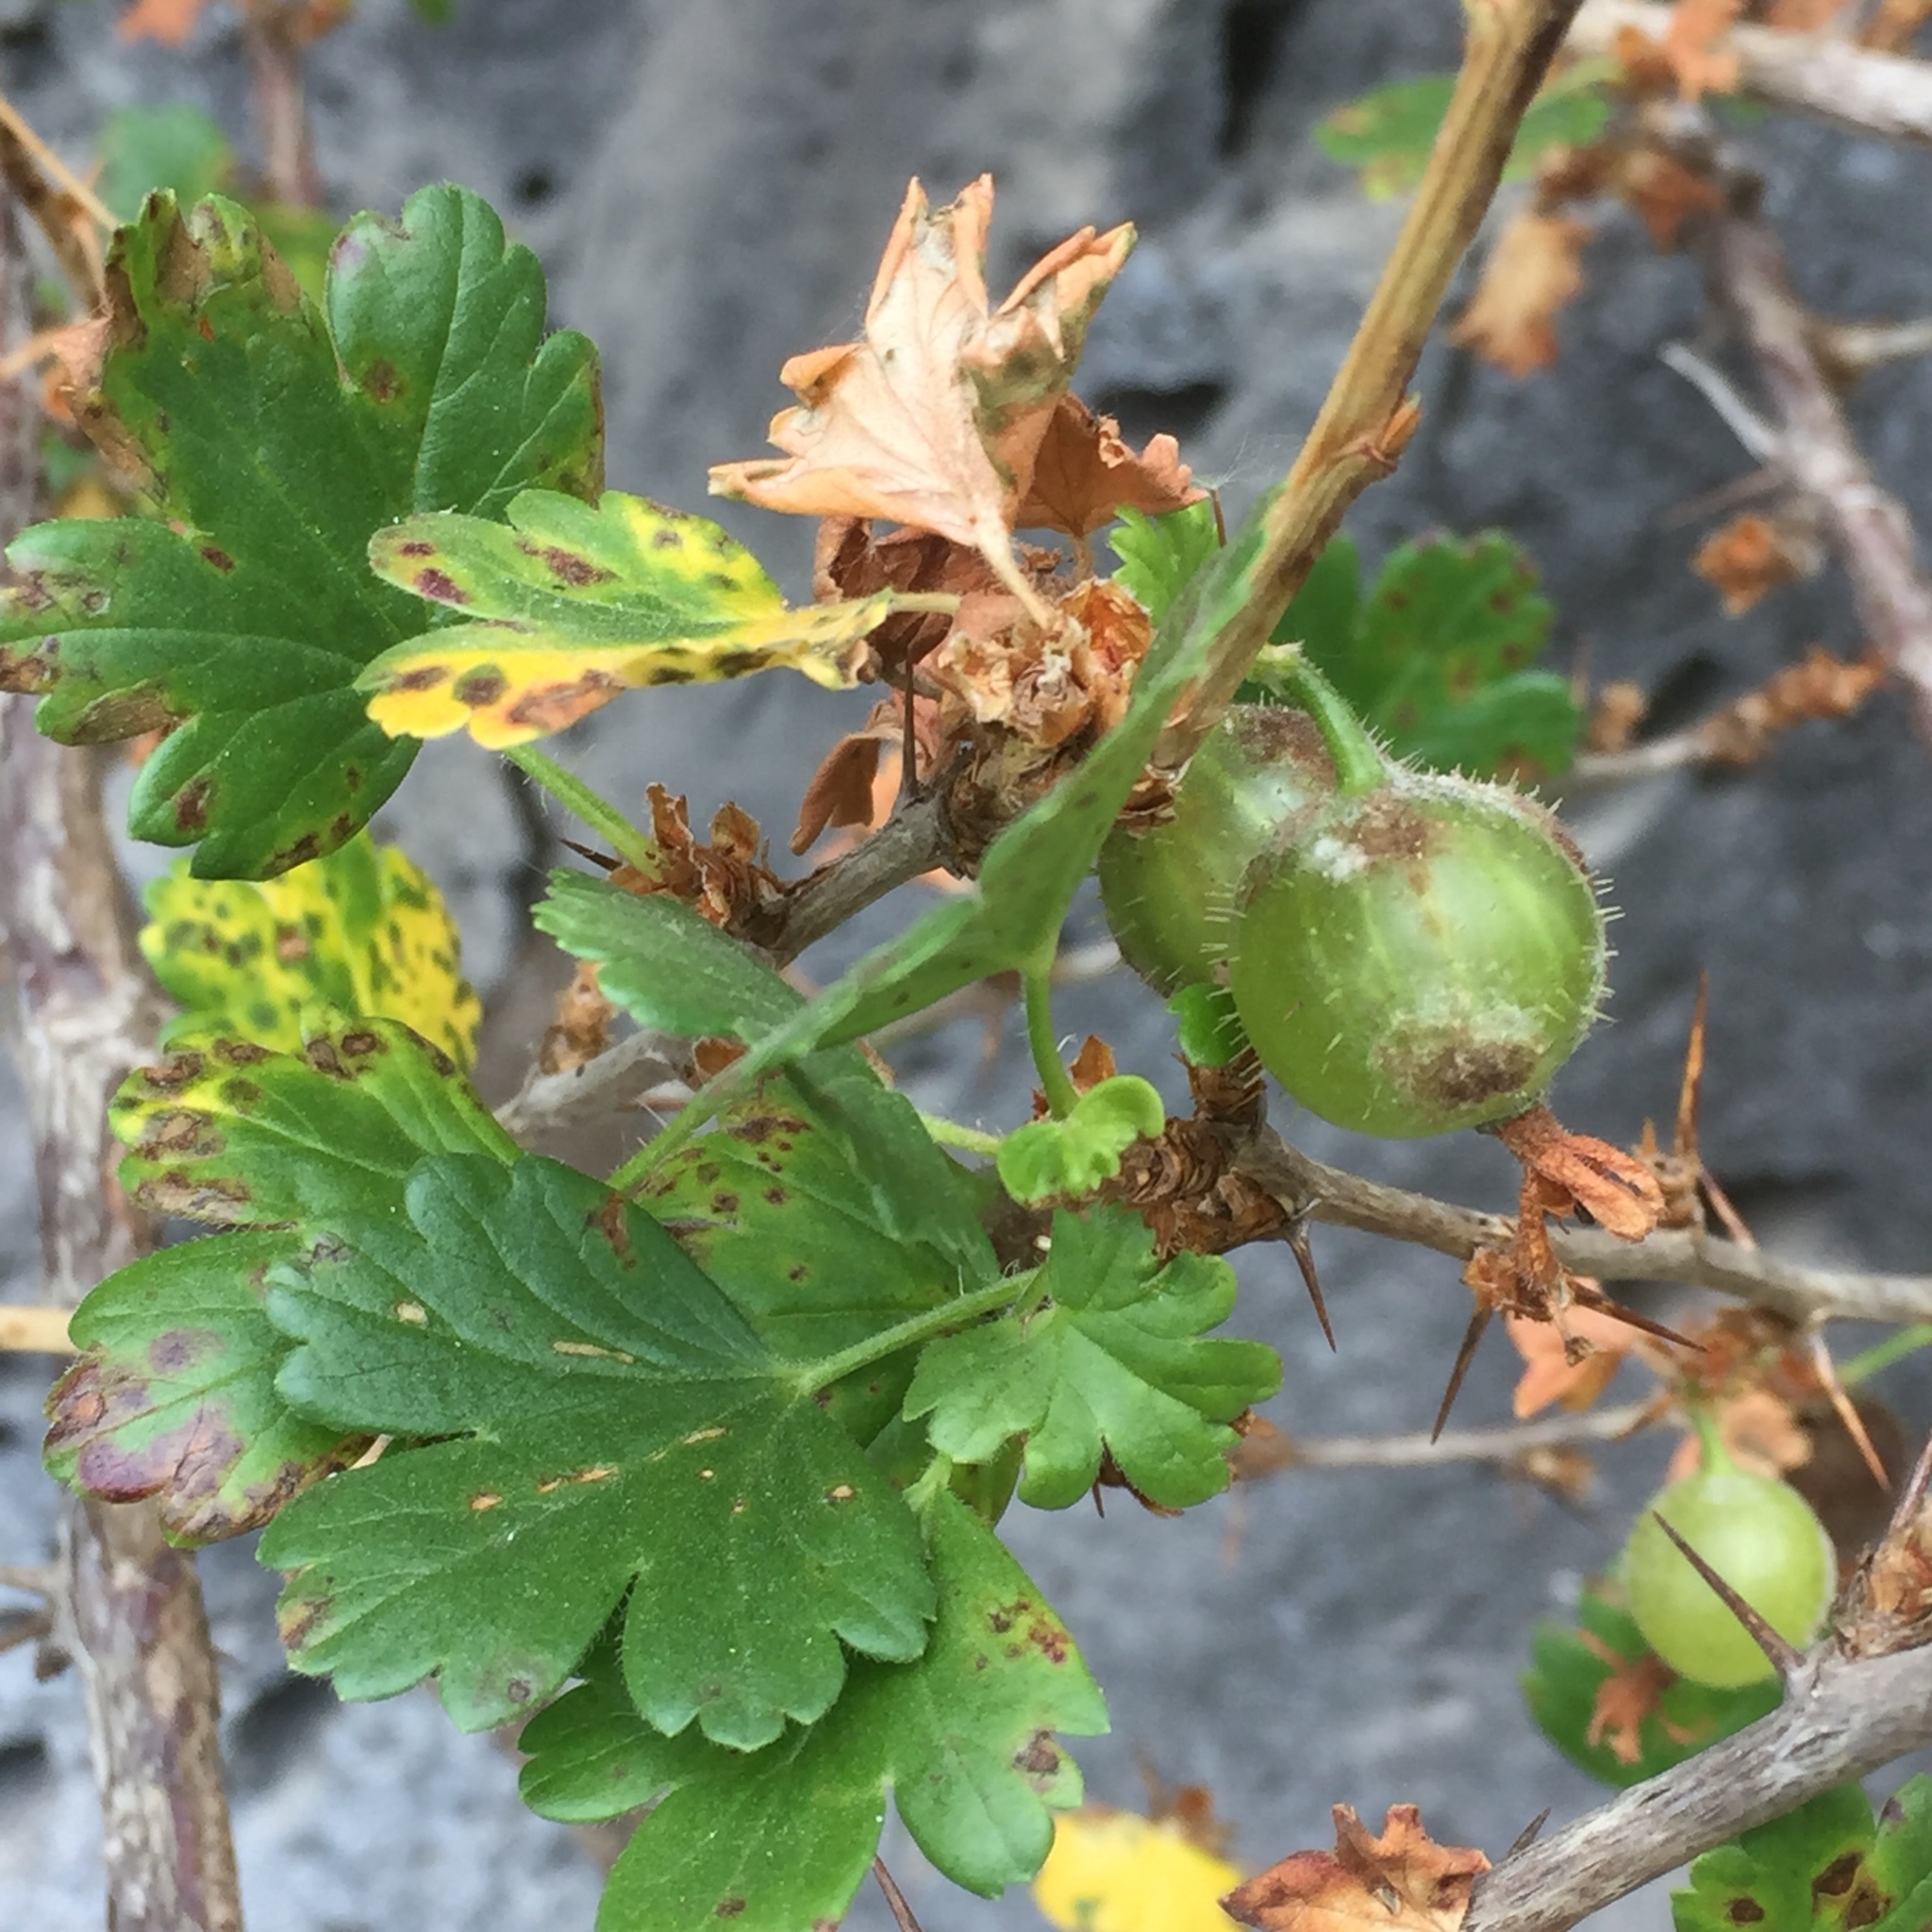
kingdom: Plantae
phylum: Tracheophyta
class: Magnoliopsida
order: Saxifragales
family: Grossulariaceae
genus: Ribes
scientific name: Ribes uva-crispa
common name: Gooseberry
